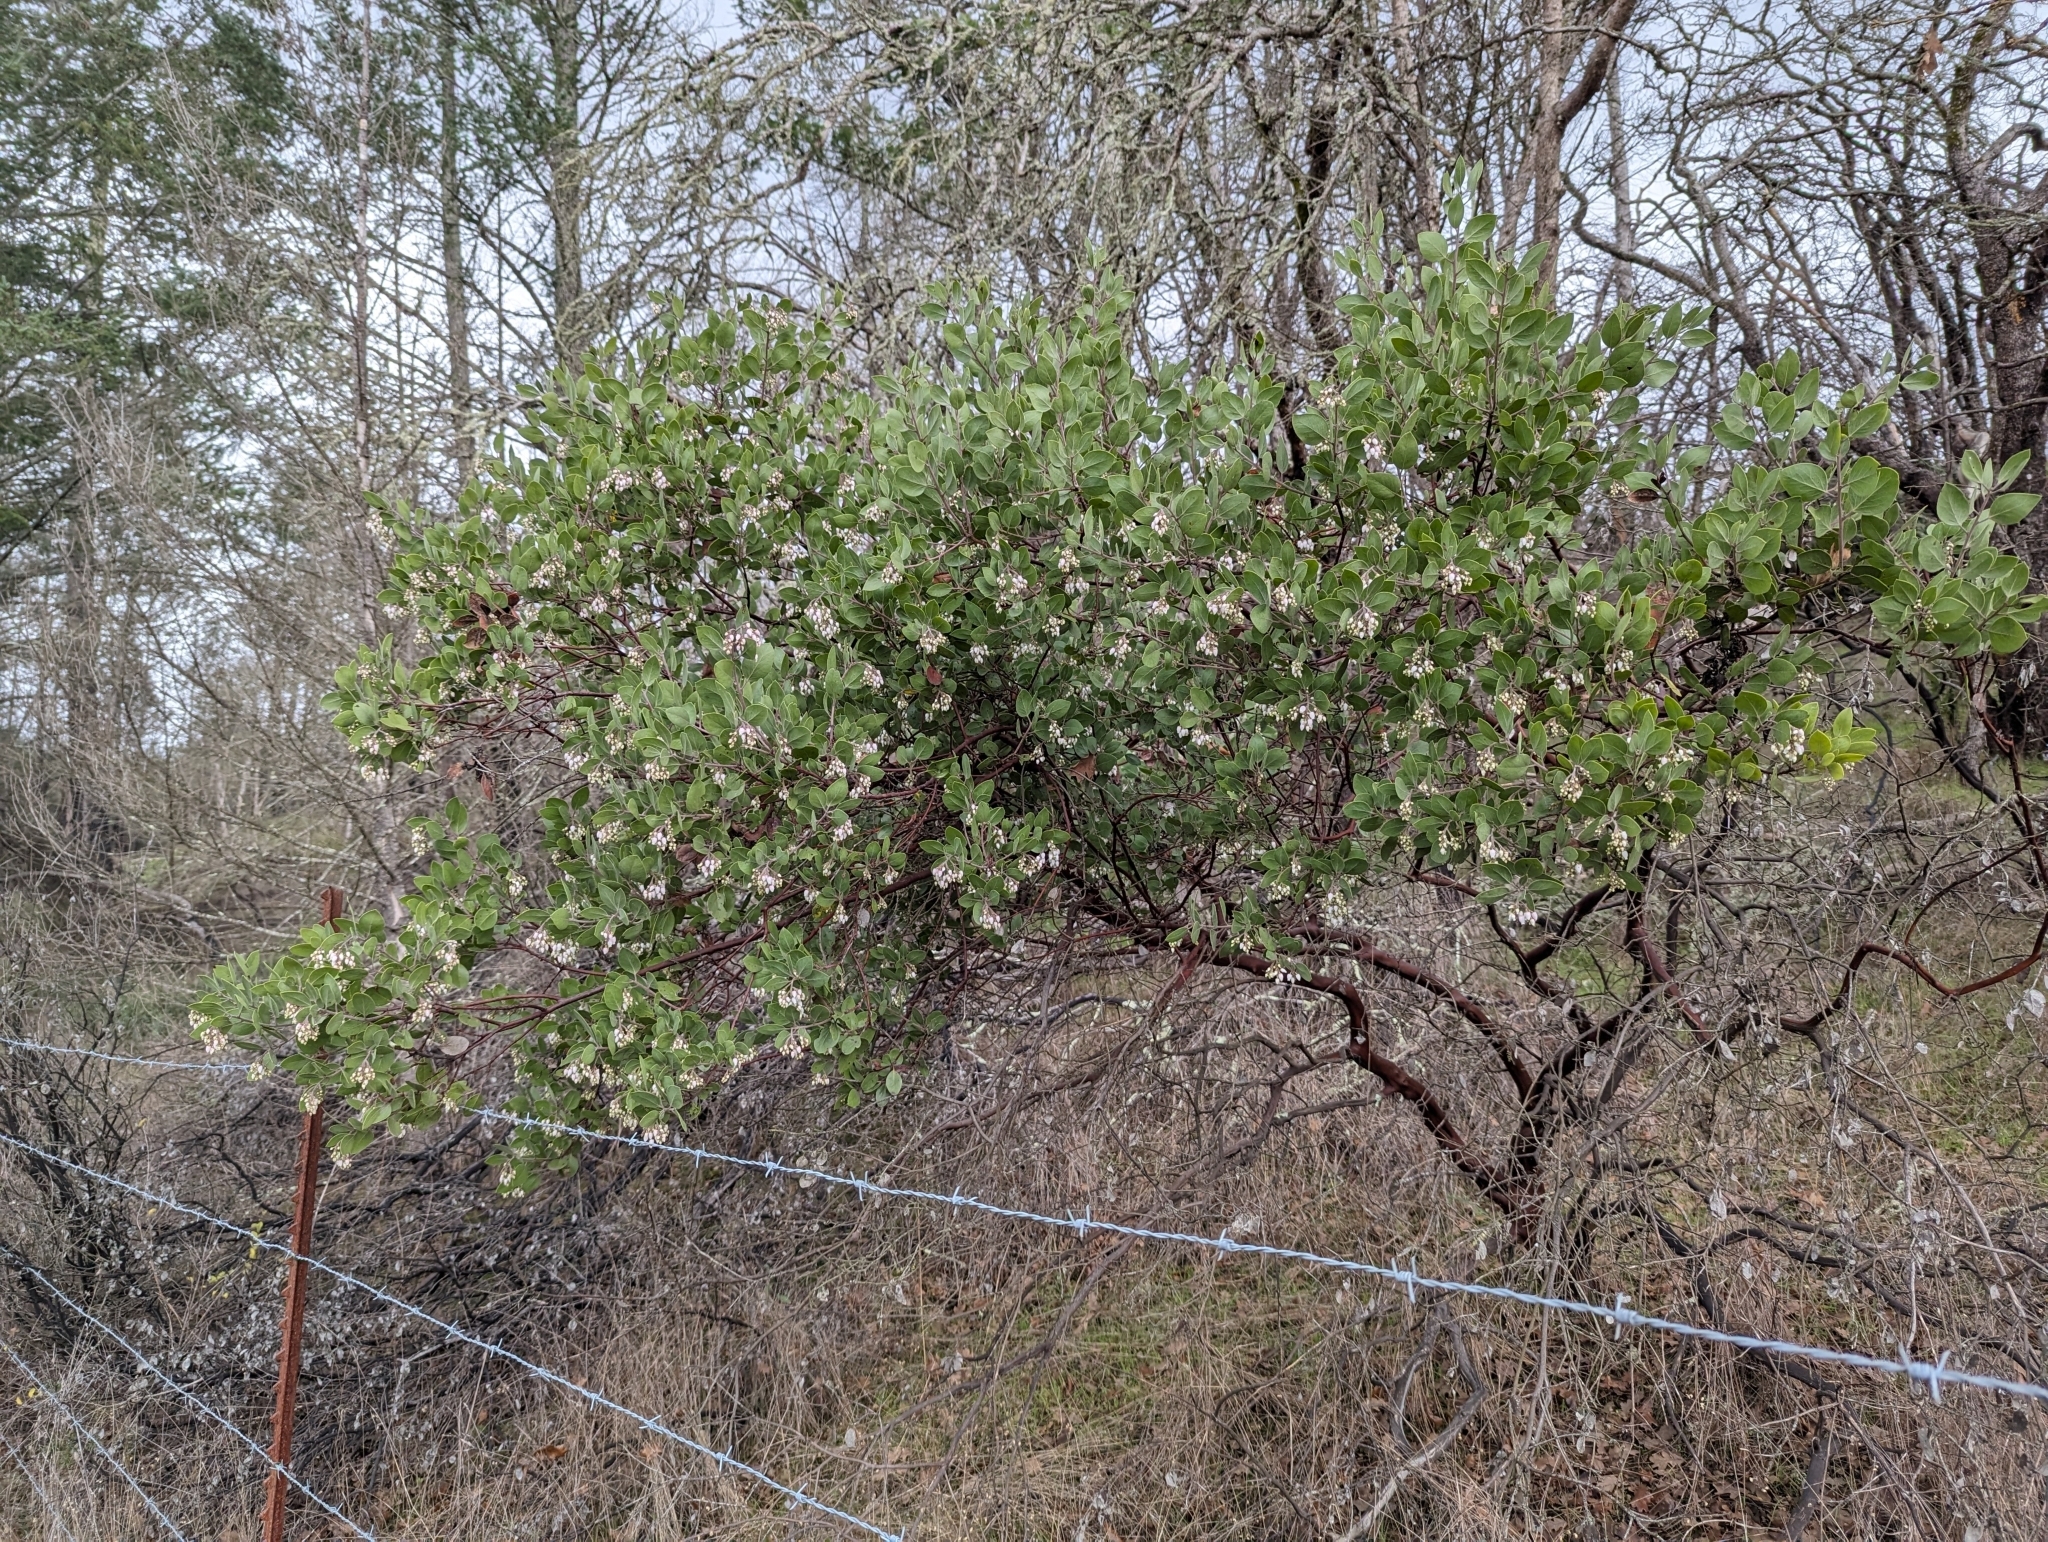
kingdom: Plantae
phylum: Tracheophyta
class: Magnoliopsida
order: Ericales
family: Ericaceae
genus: Arctostaphylos
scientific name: Arctostaphylos manzanita
